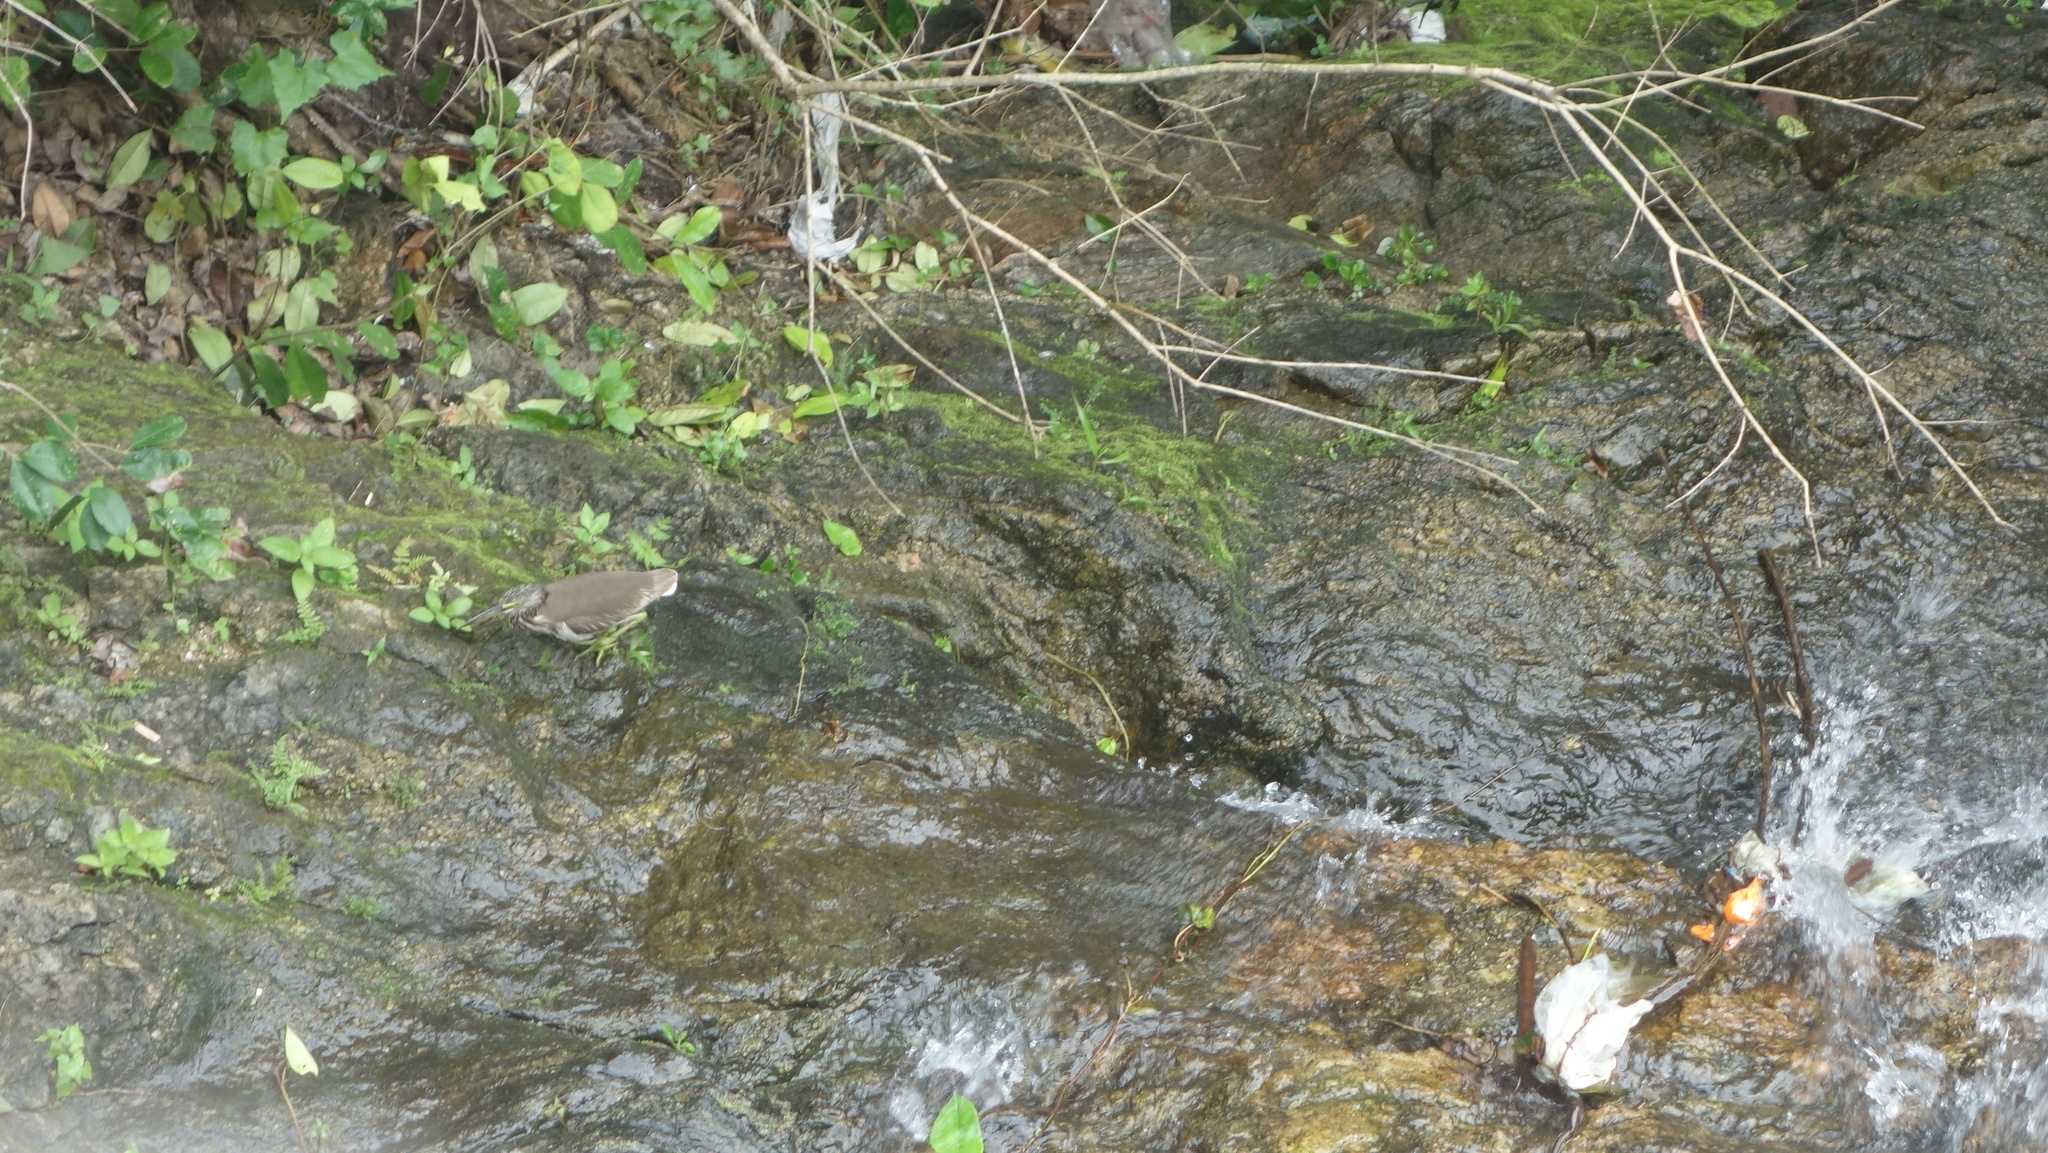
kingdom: Animalia
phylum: Chordata
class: Aves
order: Pelecaniformes
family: Ardeidae
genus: Ardeola
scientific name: Ardeola grayii
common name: Indian pond heron
